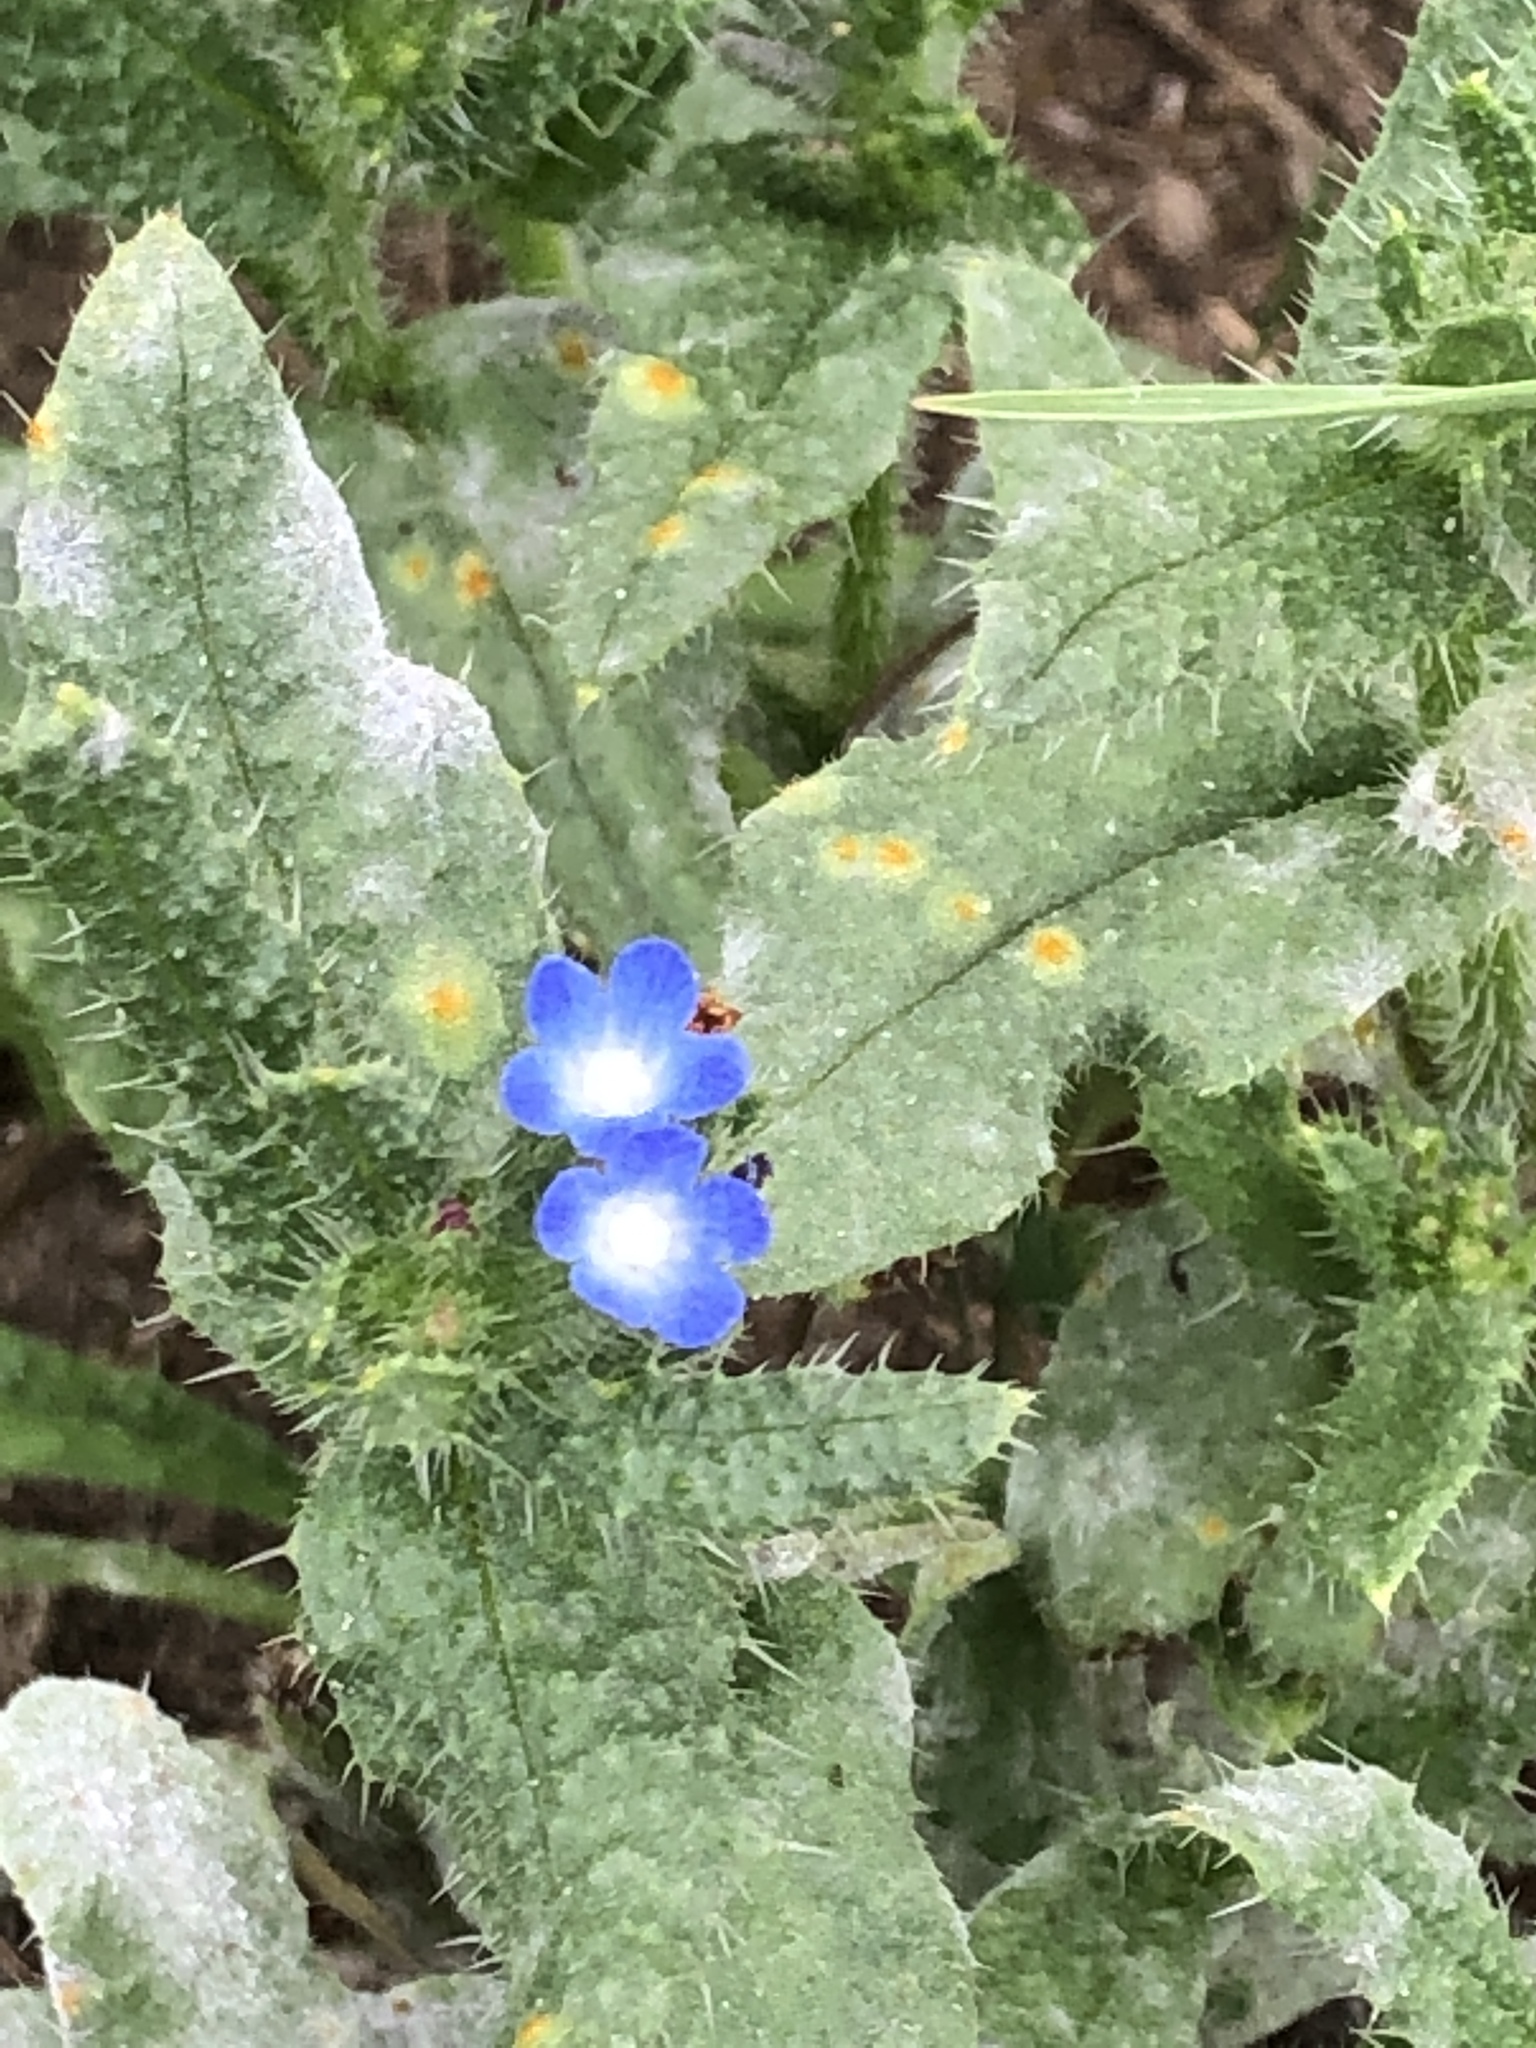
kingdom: Plantae
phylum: Tracheophyta
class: Magnoliopsida
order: Boraginales
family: Boraginaceae
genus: Lycopsis
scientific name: Lycopsis arvensis
